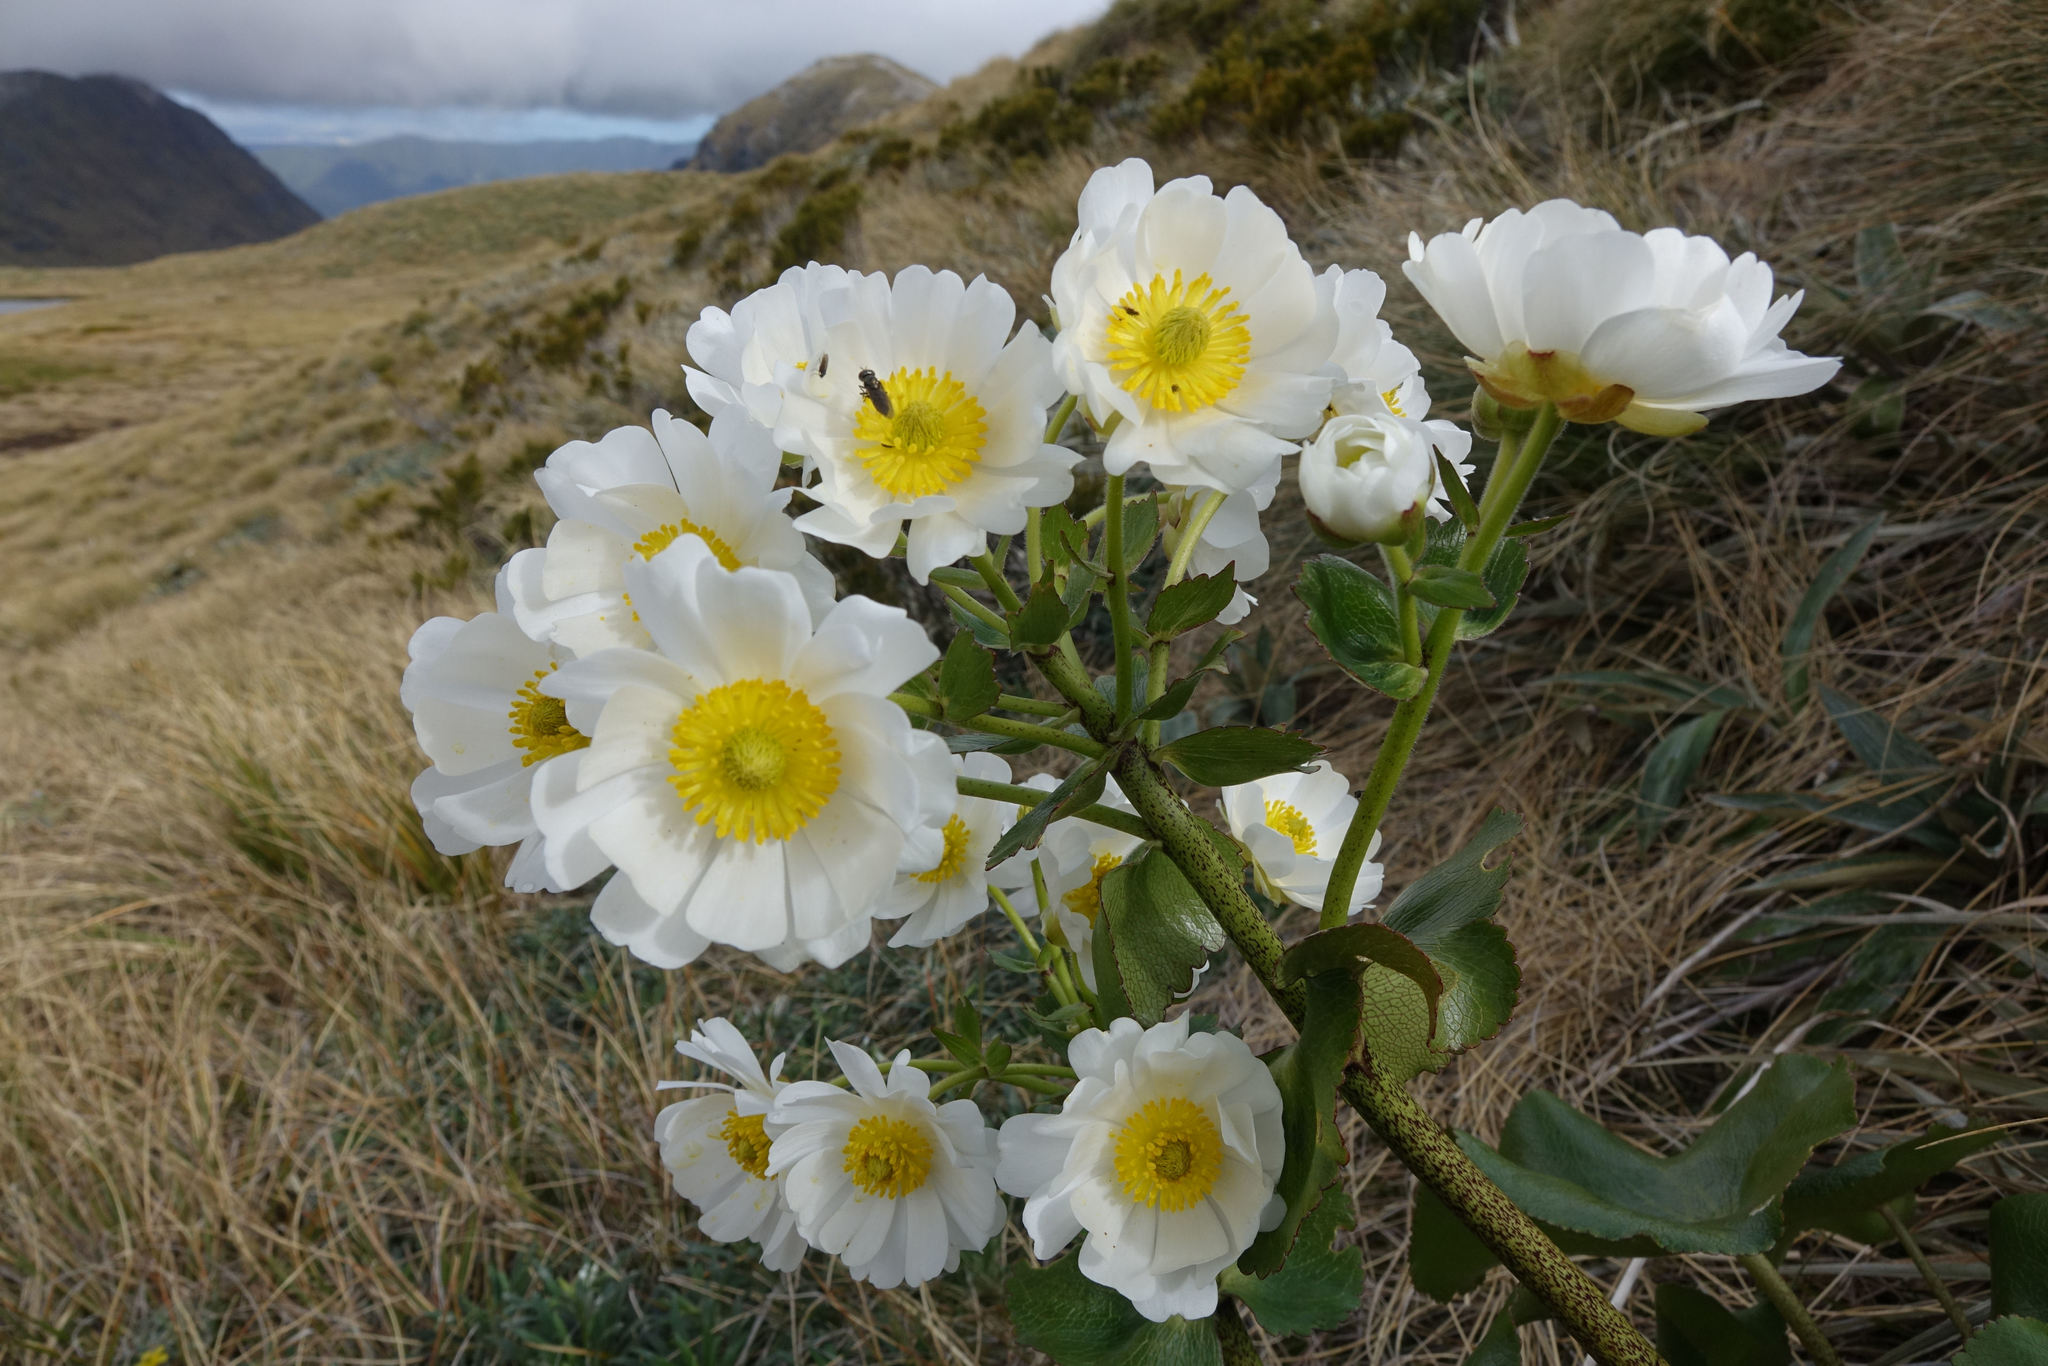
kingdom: Plantae
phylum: Tracheophyta
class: Magnoliopsida
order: Ranunculales
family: Ranunculaceae
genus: Ranunculus
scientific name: Ranunculus lyallii
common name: Mountain-lily
